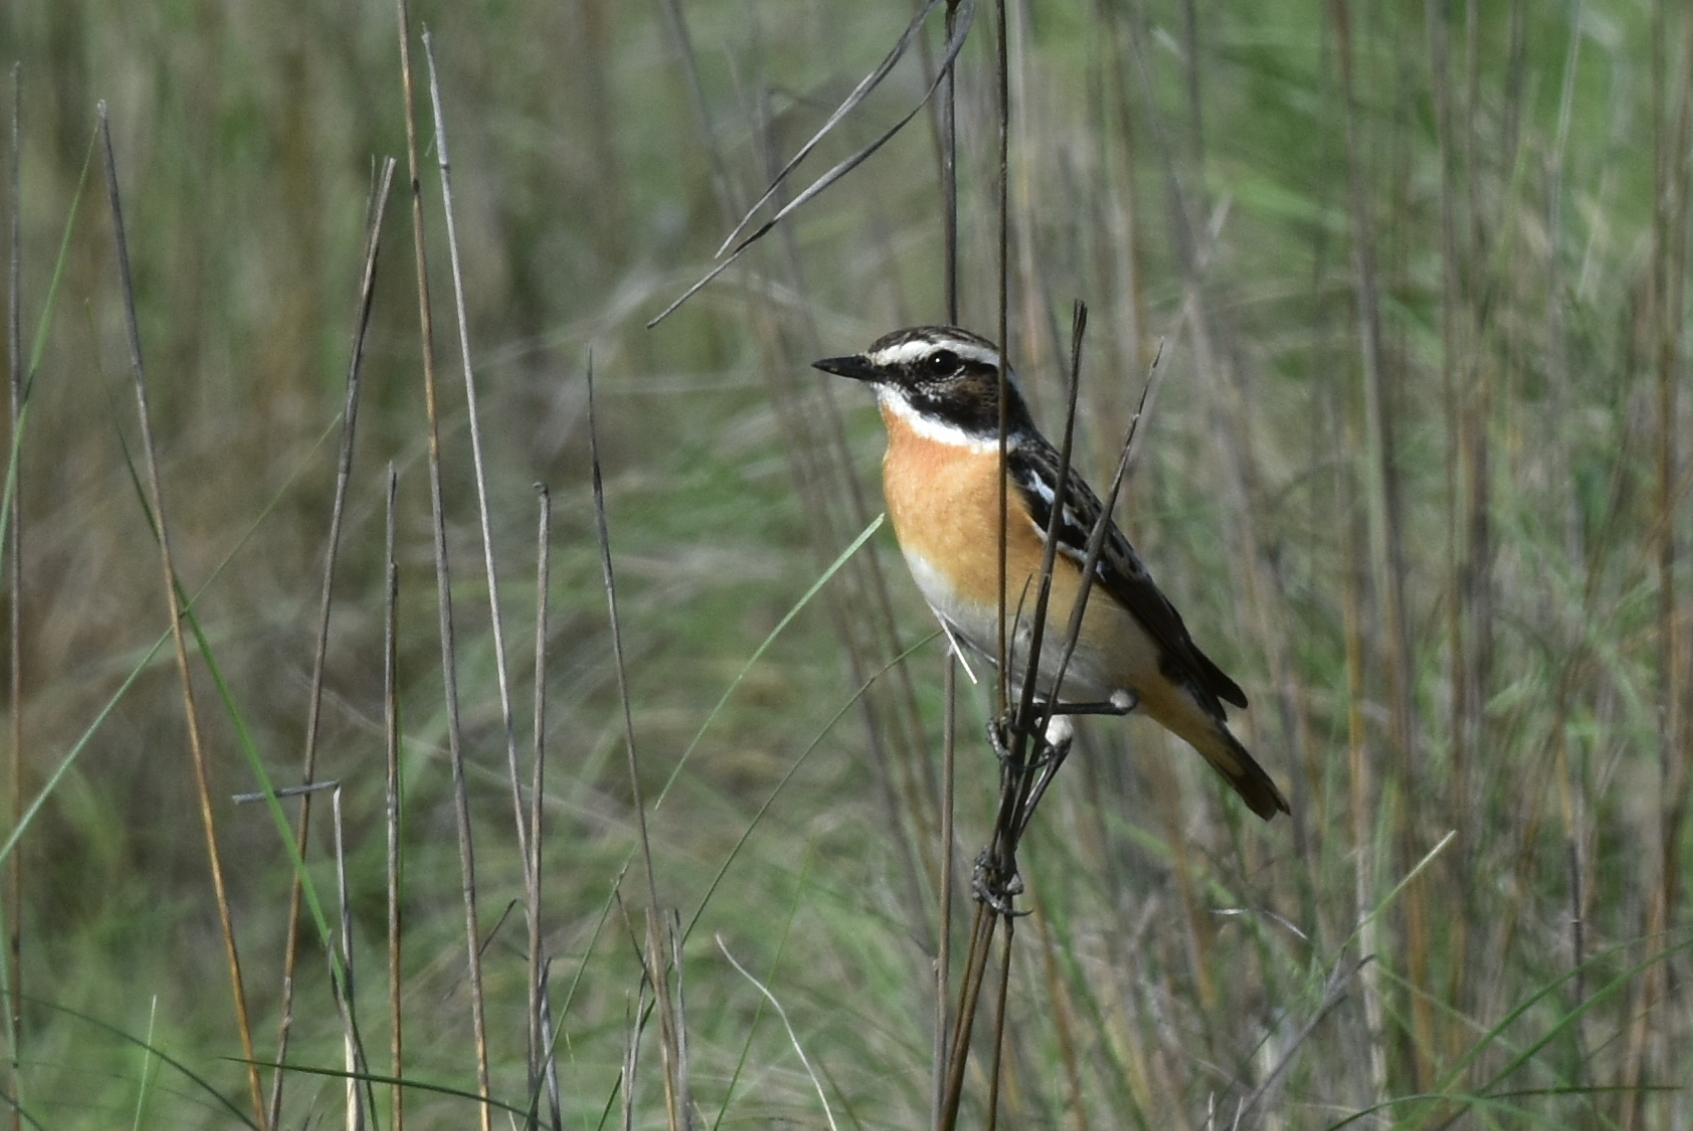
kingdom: Animalia
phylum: Chordata
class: Aves
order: Passeriformes
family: Muscicapidae
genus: Saxicola
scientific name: Saxicola rubetra
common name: Whinchat
